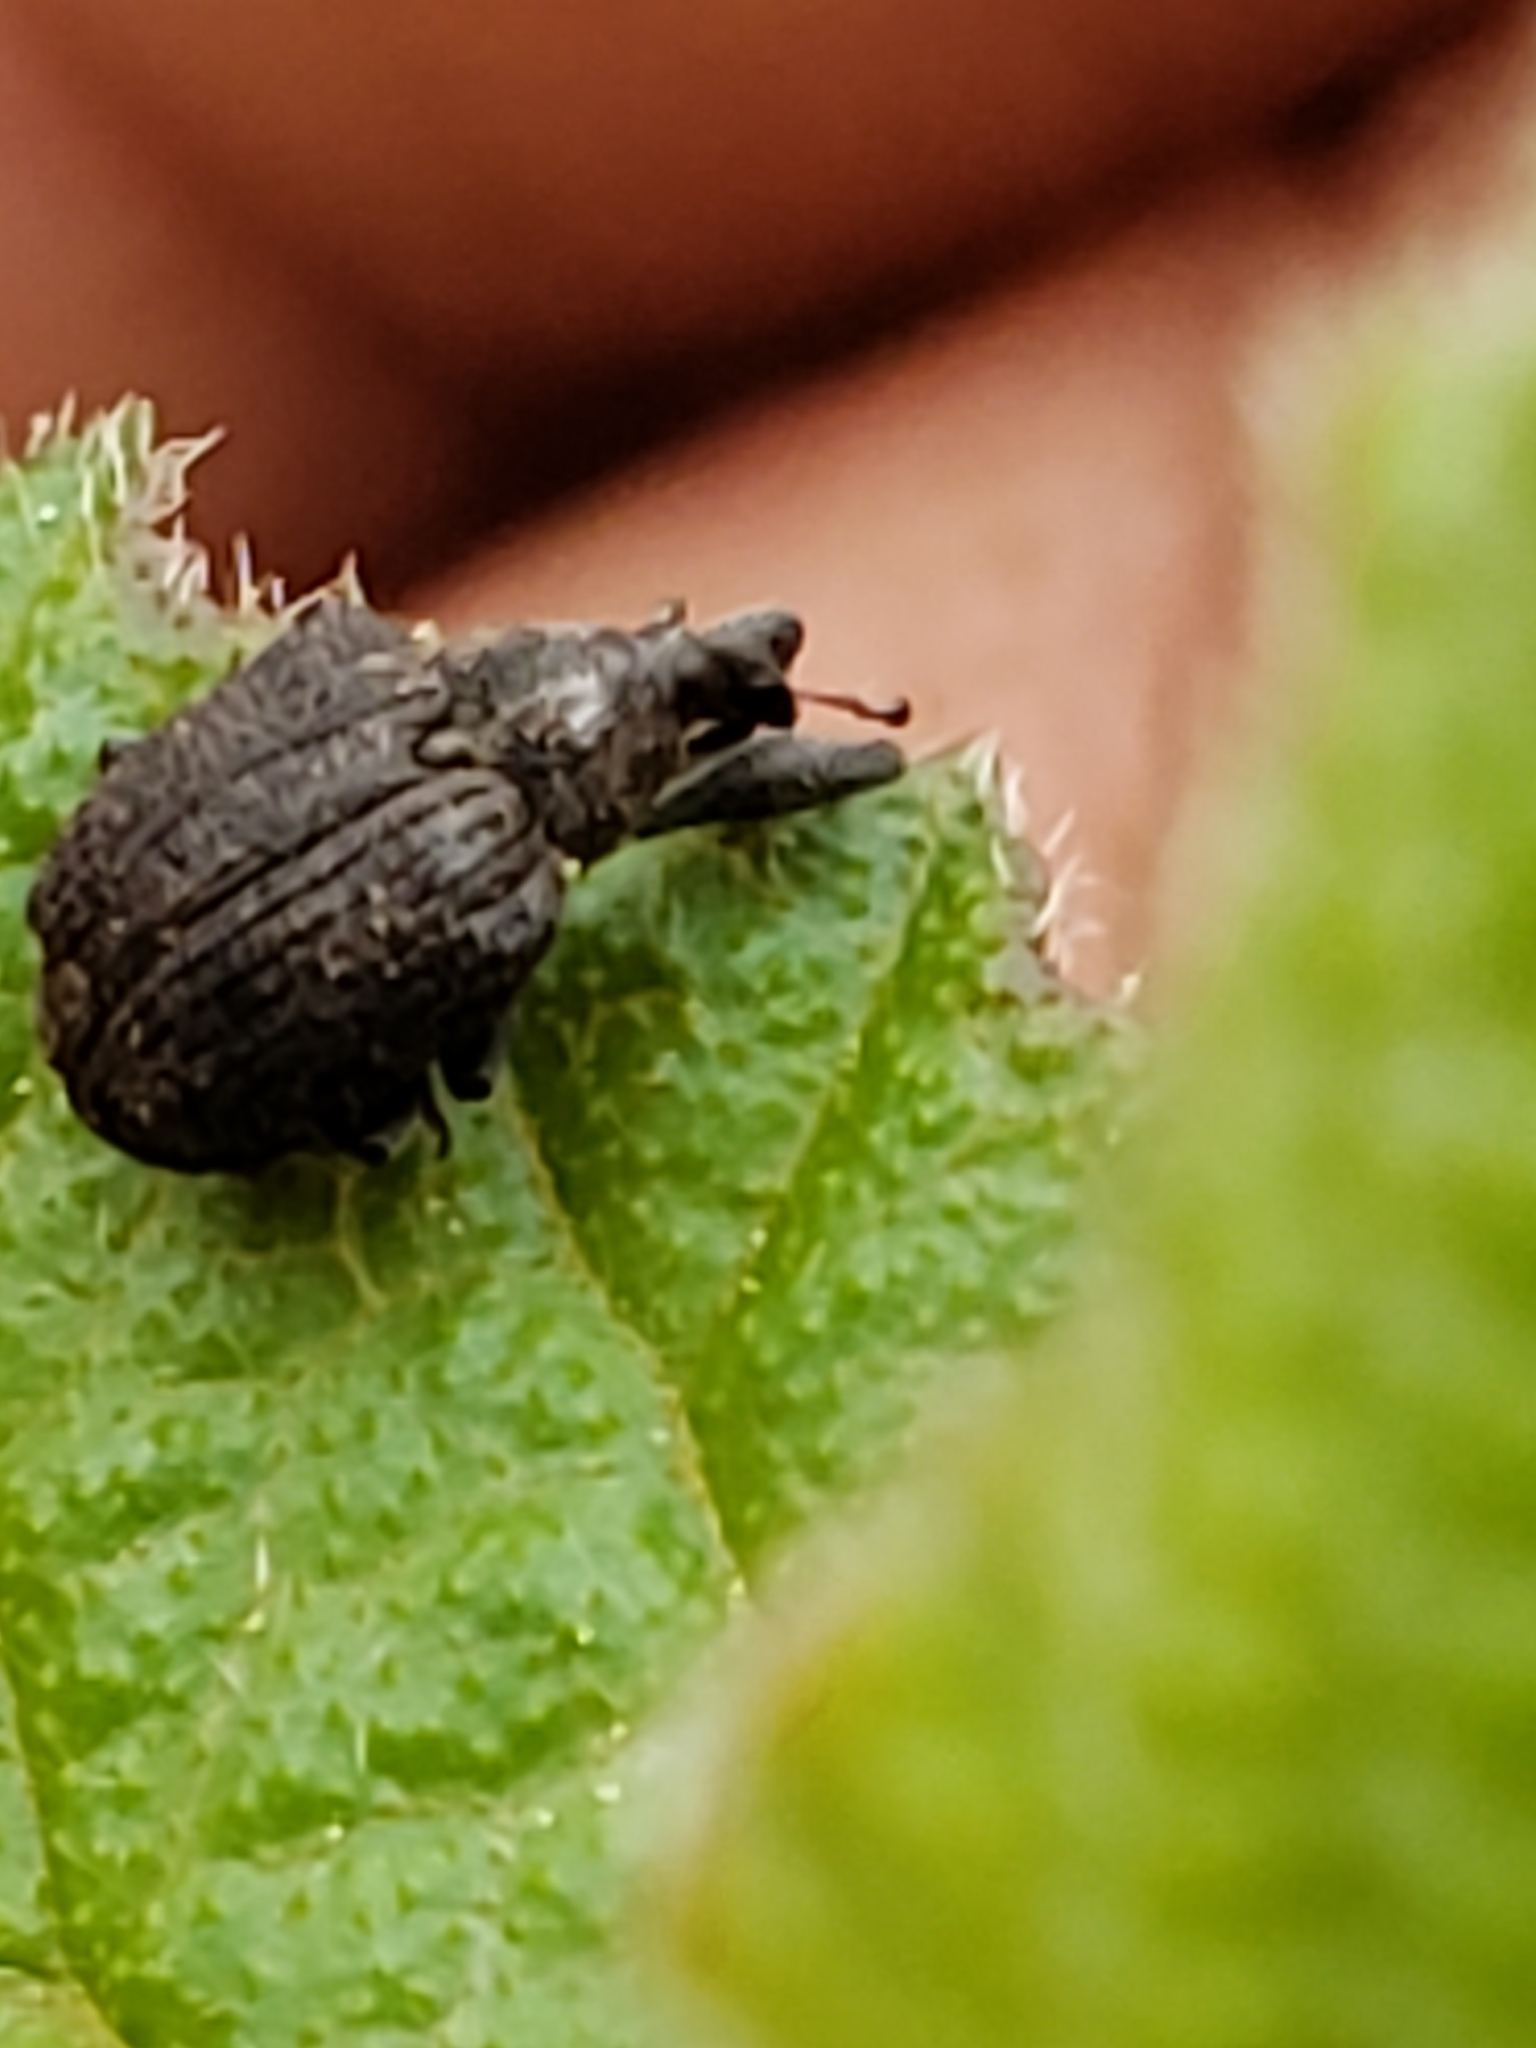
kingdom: Animalia
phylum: Arthropoda
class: Insecta
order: Coleoptera
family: Curculionidae
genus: Odontopus
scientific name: Odontopus calceatus
